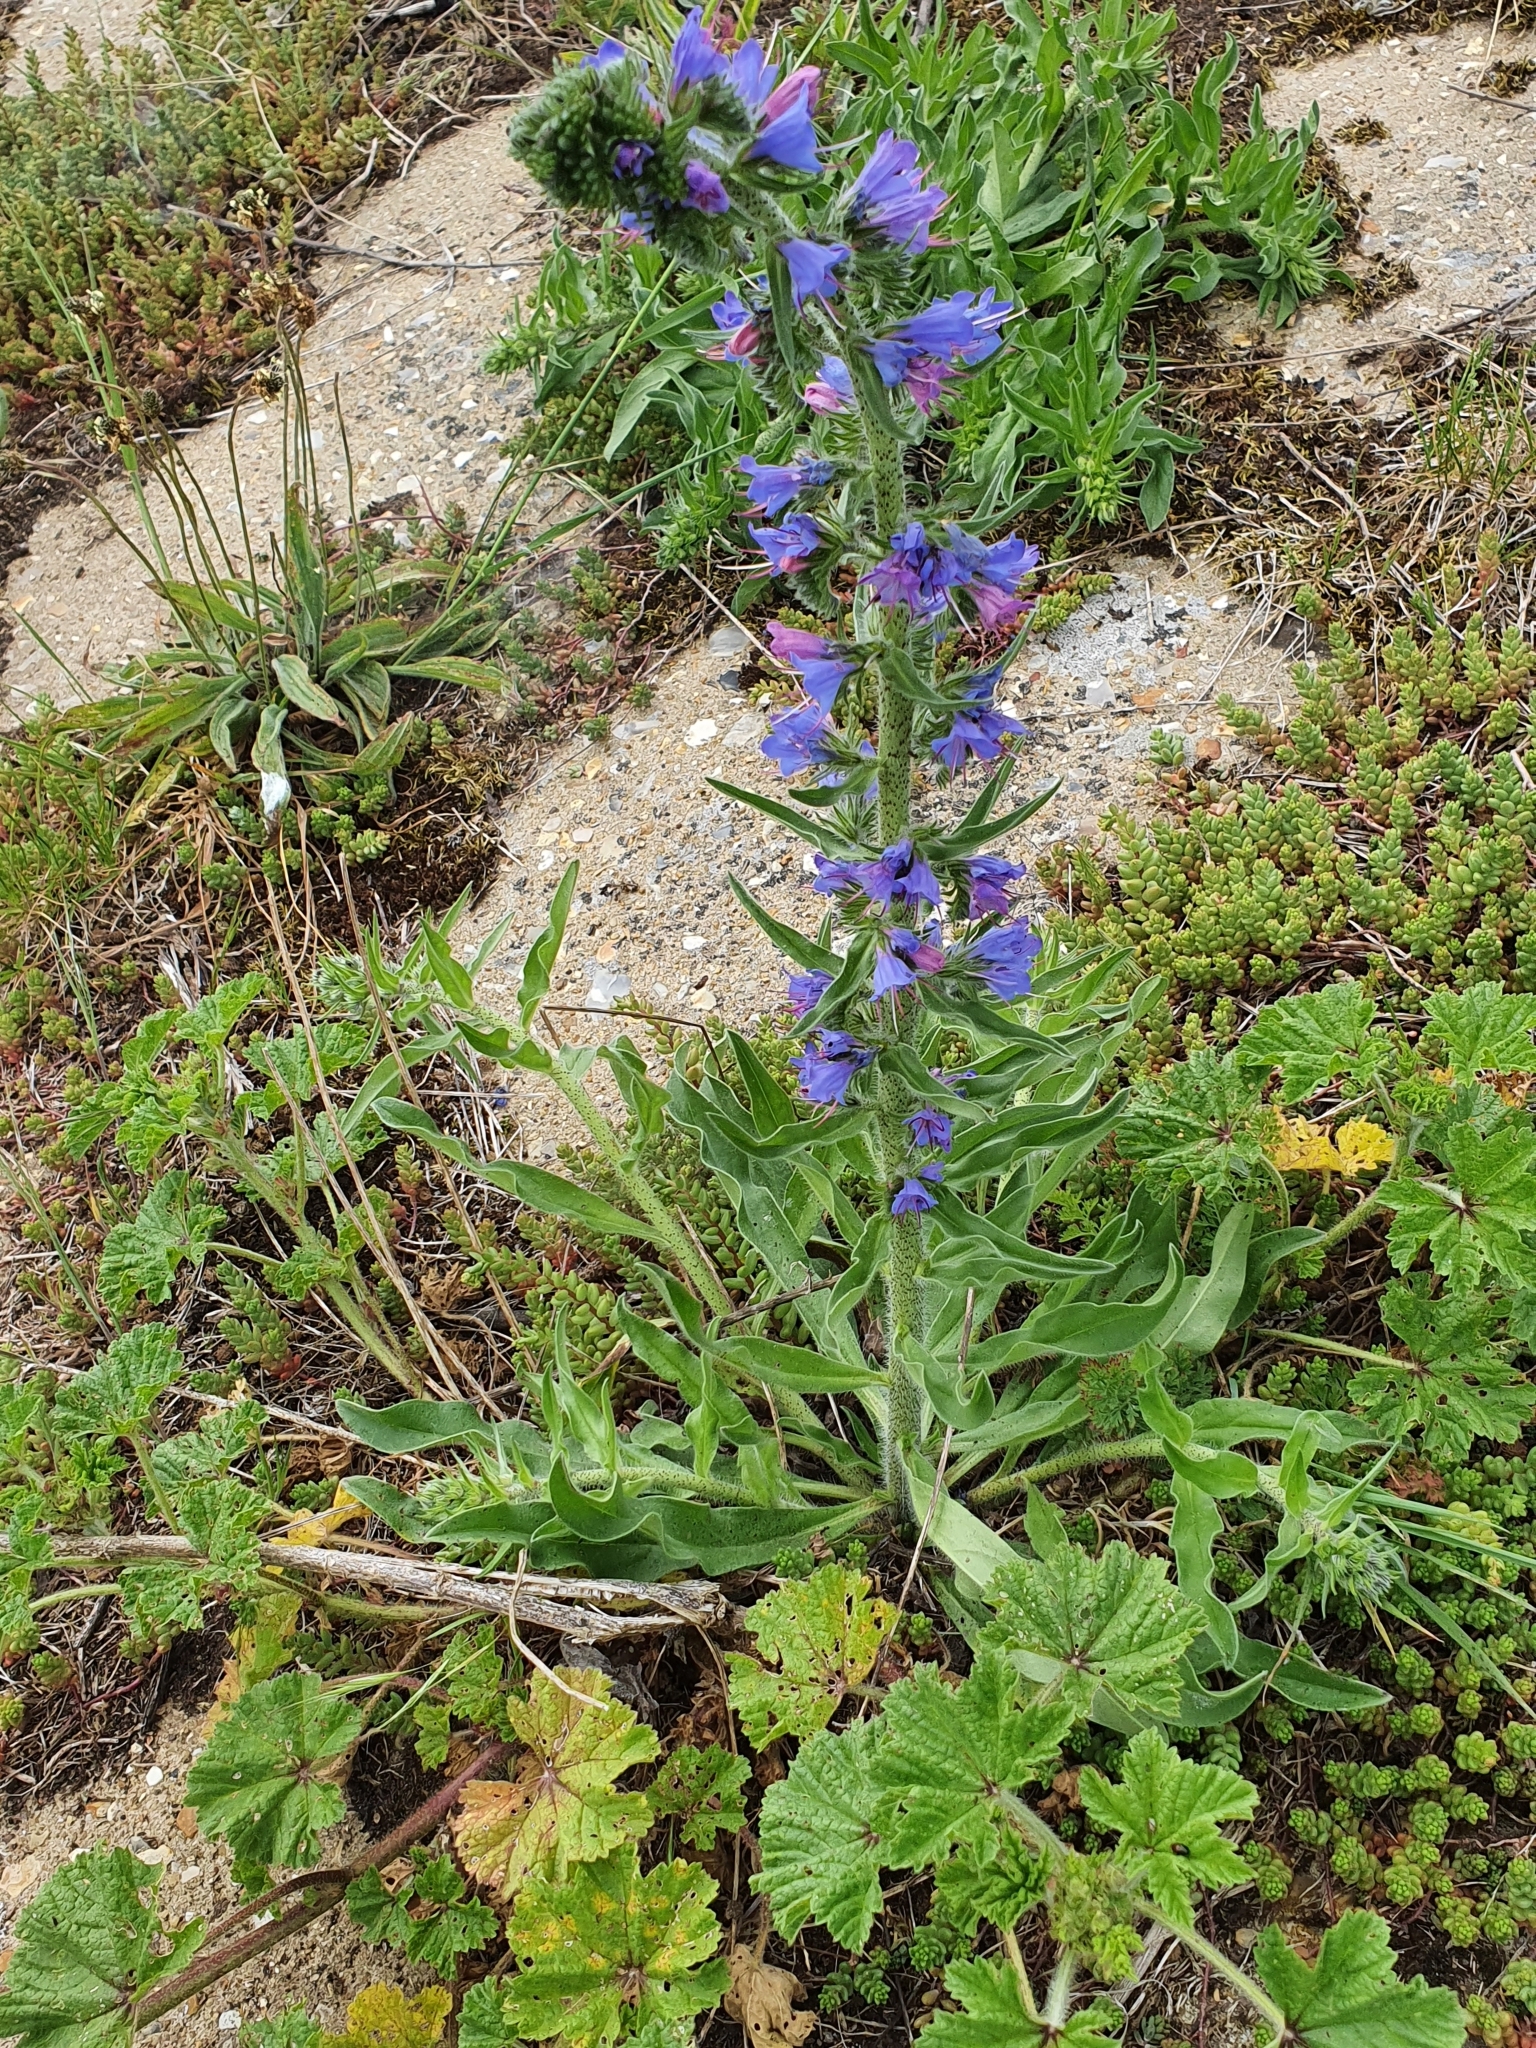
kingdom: Plantae
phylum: Tracheophyta
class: Magnoliopsida
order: Boraginales
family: Boraginaceae
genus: Echium
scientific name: Echium vulgare
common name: Common viper's bugloss
